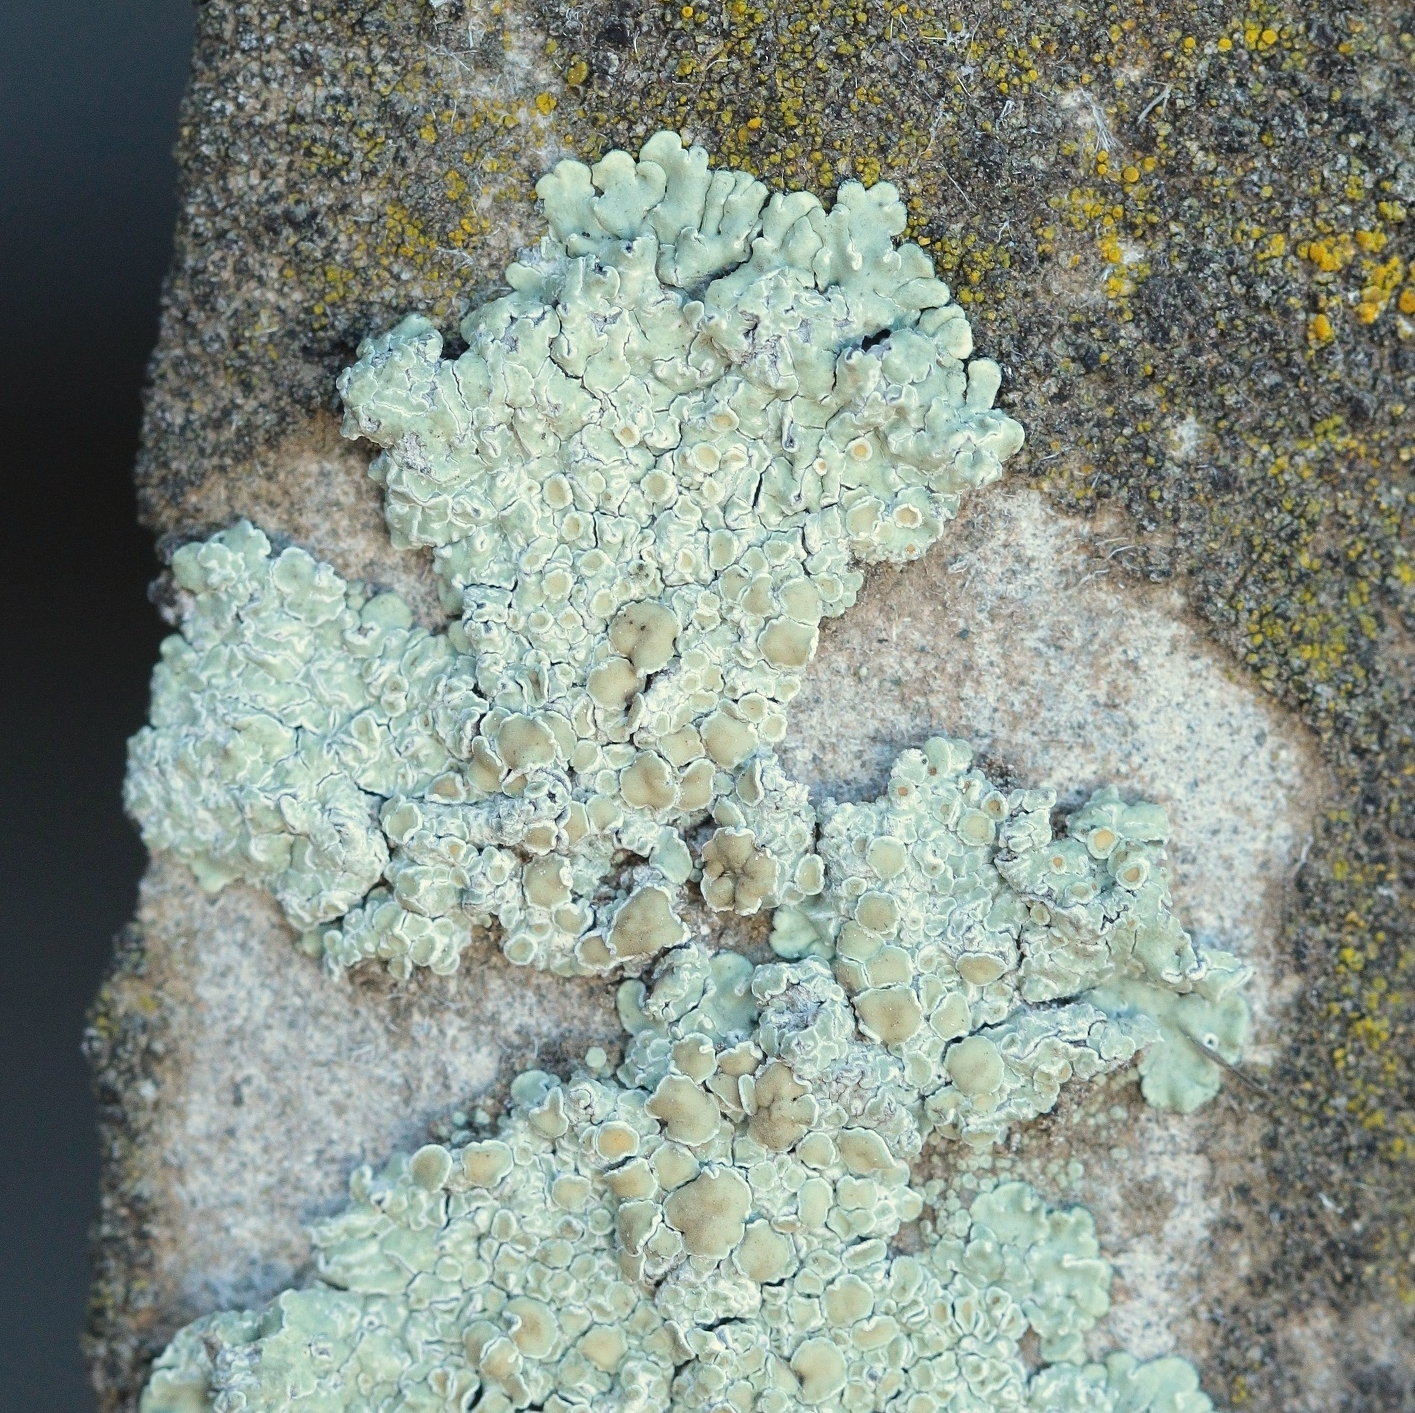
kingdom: Fungi
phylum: Ascomycota
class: Lecanoromycetes
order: Lecanorales
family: Lecanoraceae
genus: Protoparmeliopsis
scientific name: Protoparmeliopsis muralis
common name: Stonewall rim lichen
